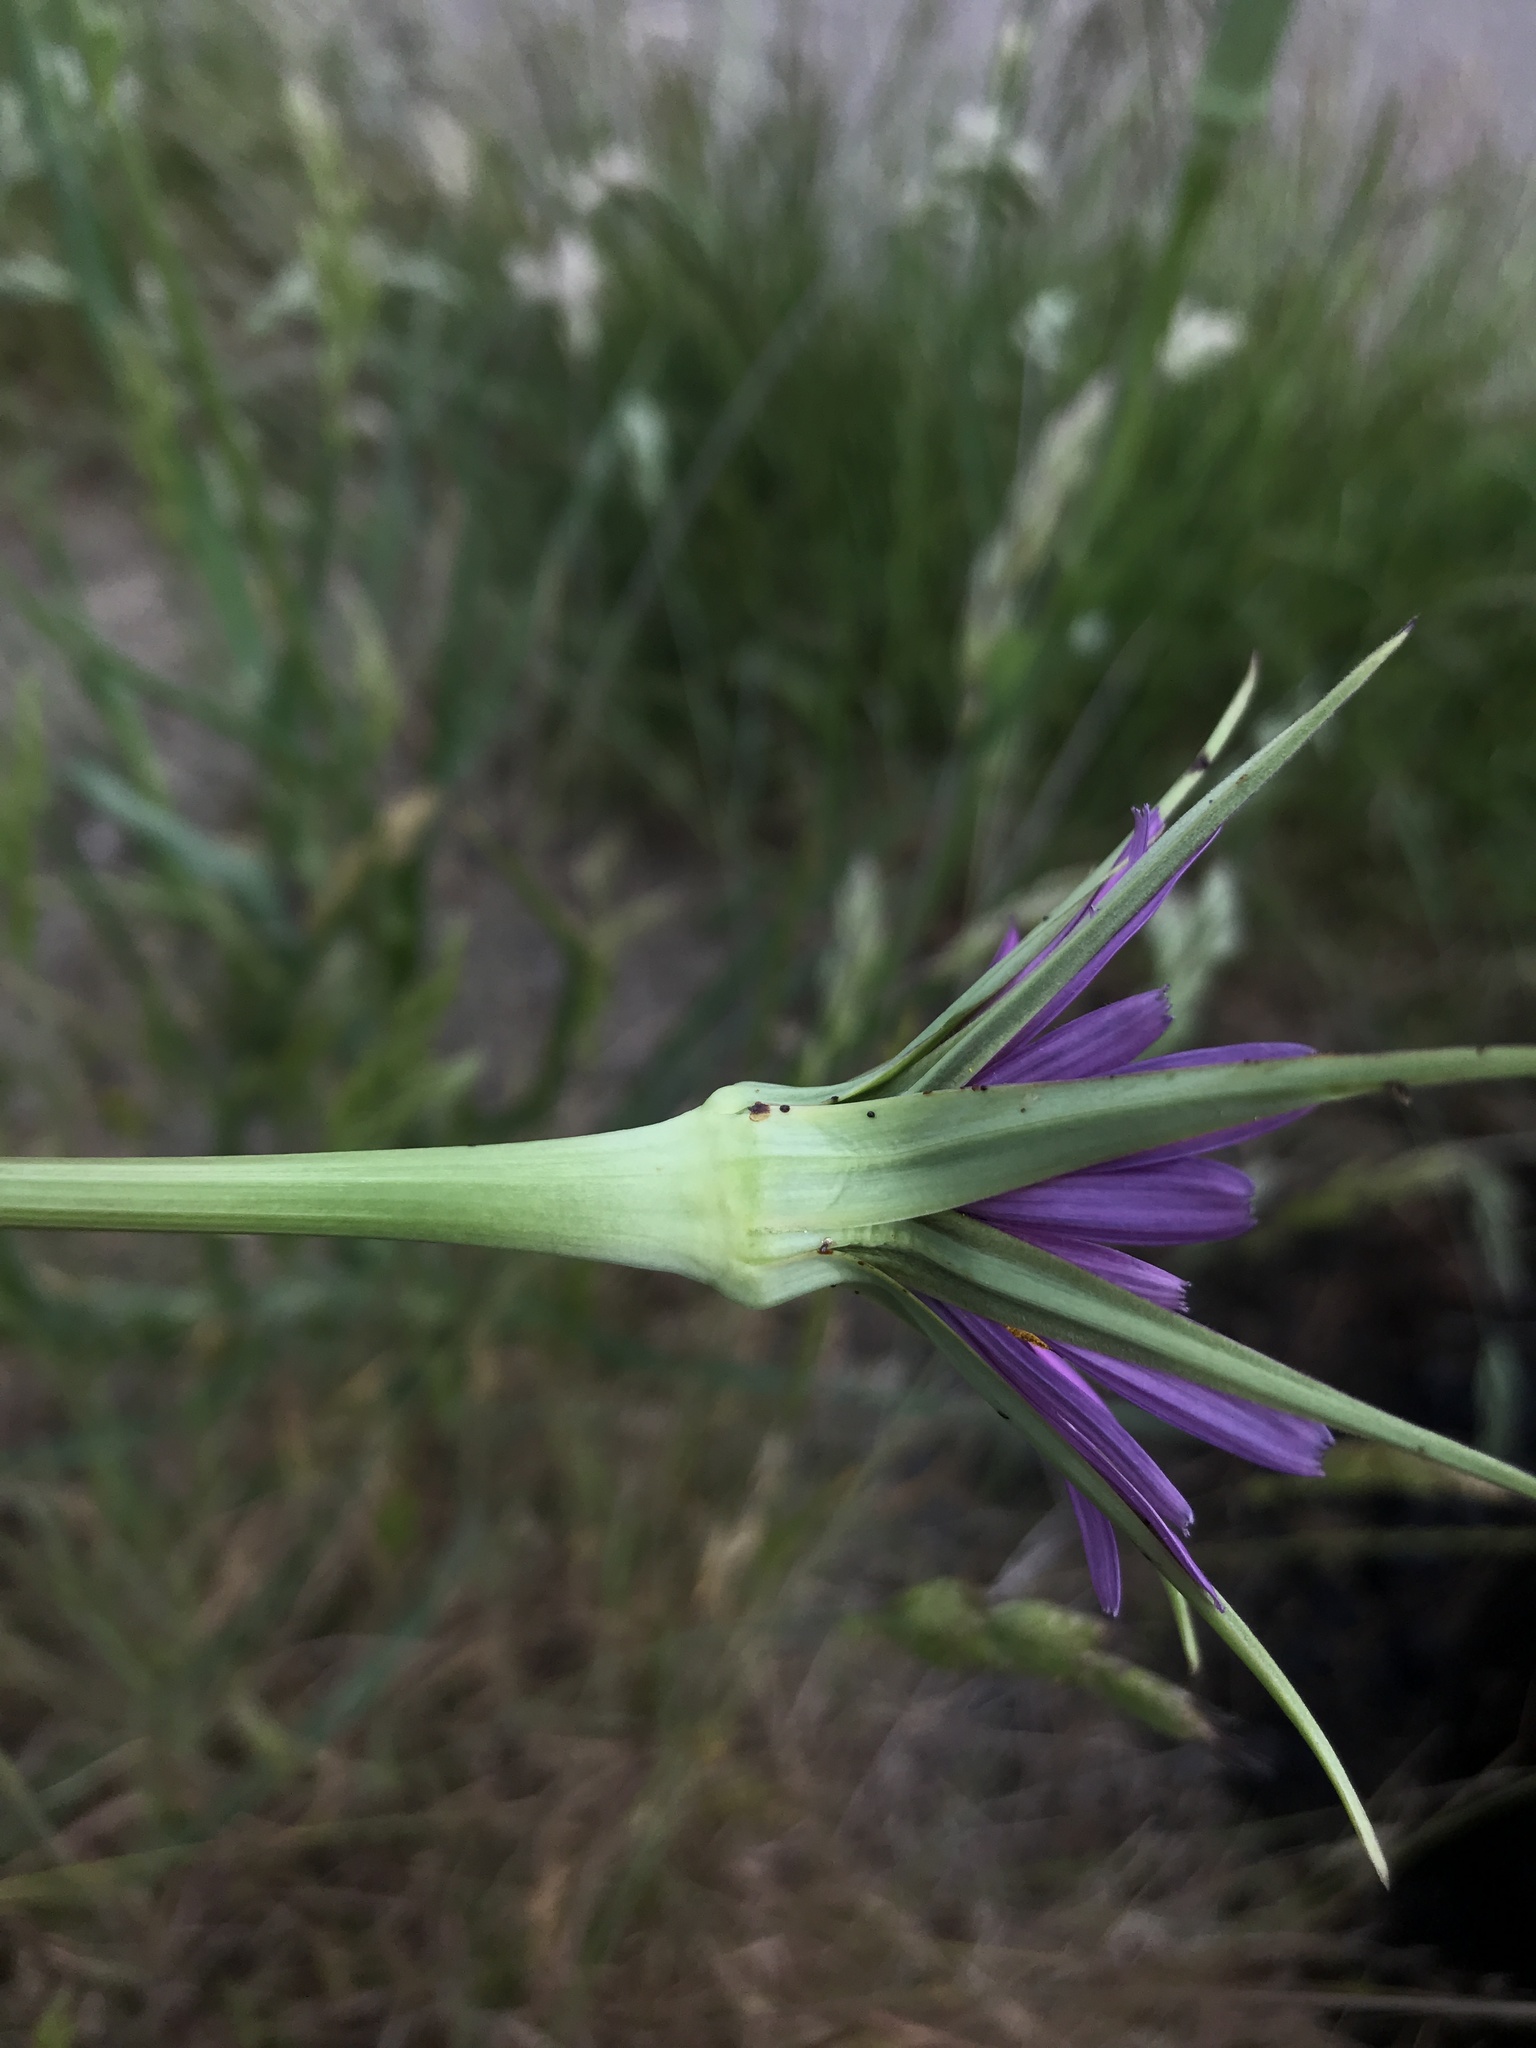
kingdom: Plantae
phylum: Tracheophyta
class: Magnoliopsida
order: Asterales
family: Asteraceae
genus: Tragopogon
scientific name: Tragopogon porrifolius
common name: Salsify
